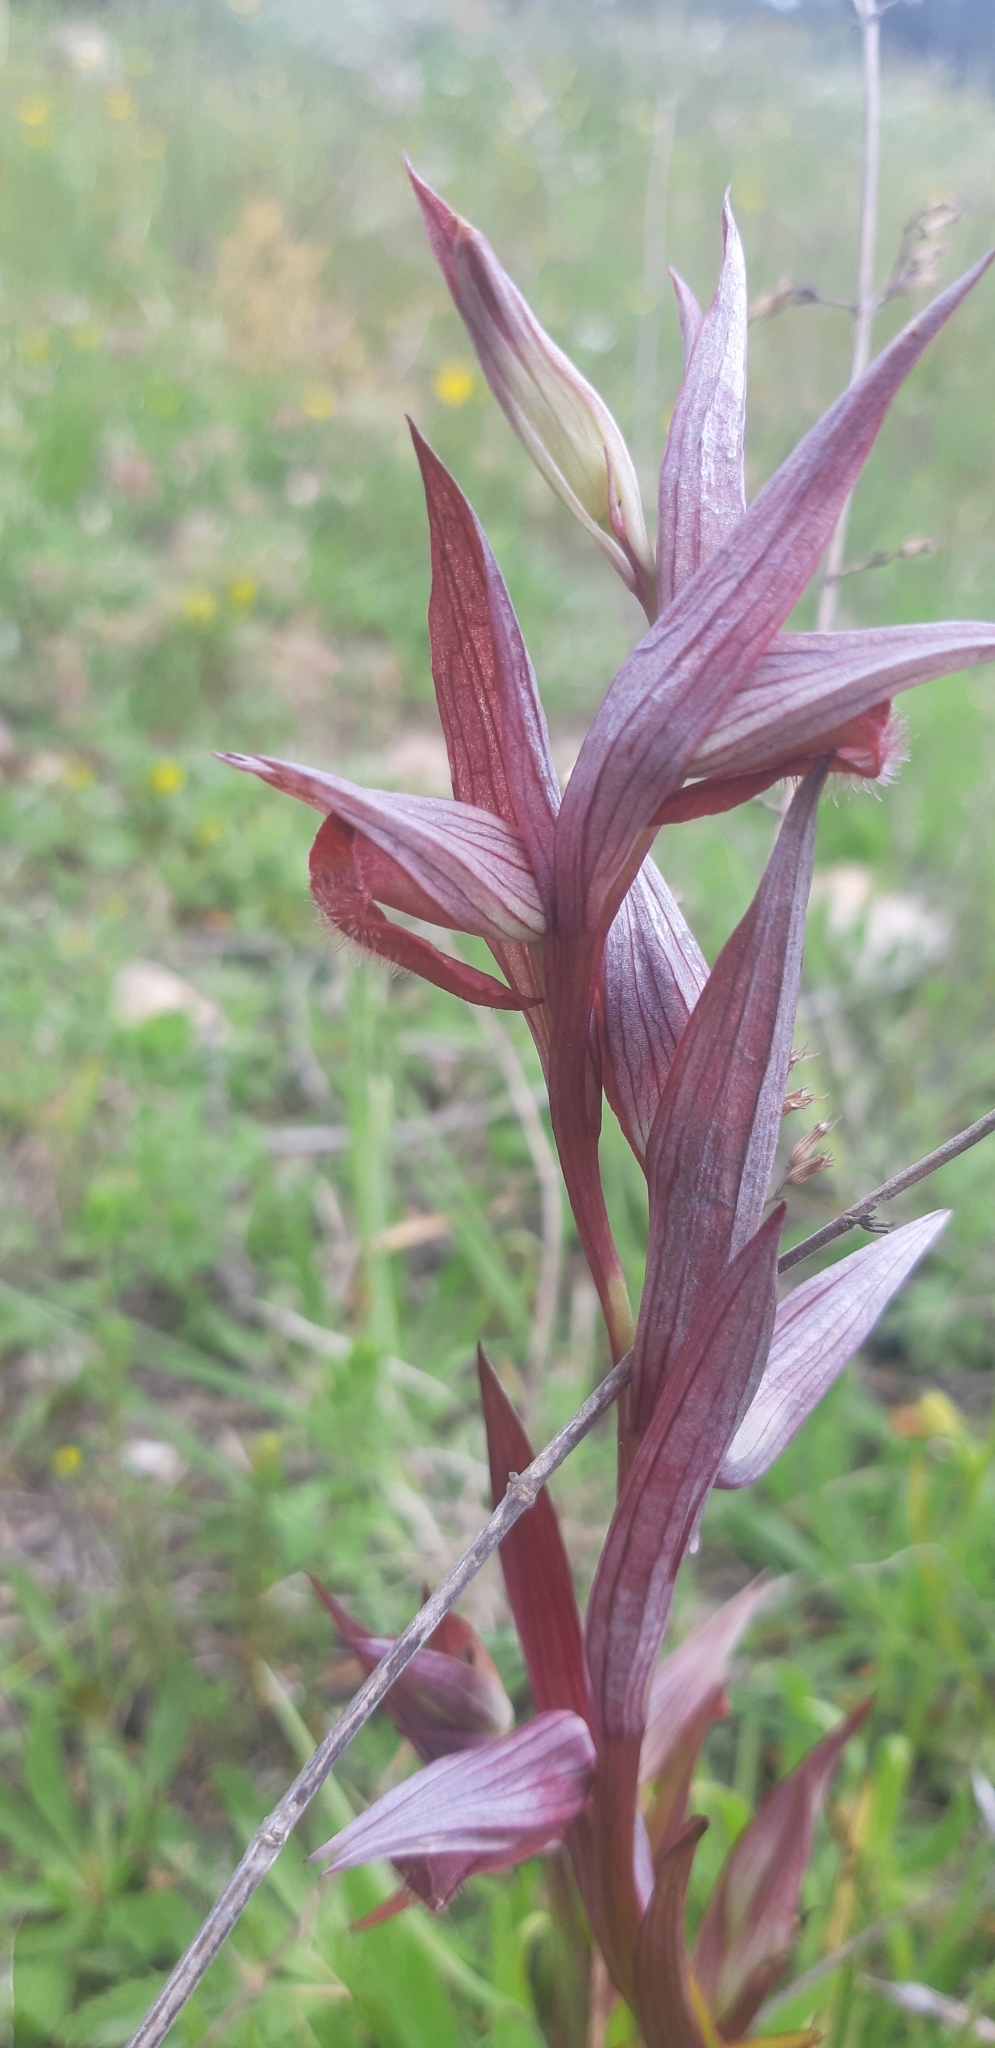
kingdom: Plantae
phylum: Tracheophyta
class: Liliopsida
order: Asparagales
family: Orchidaceae
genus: Serapias
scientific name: Serapias vomeracea
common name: Long-lipped tongue-orchid
